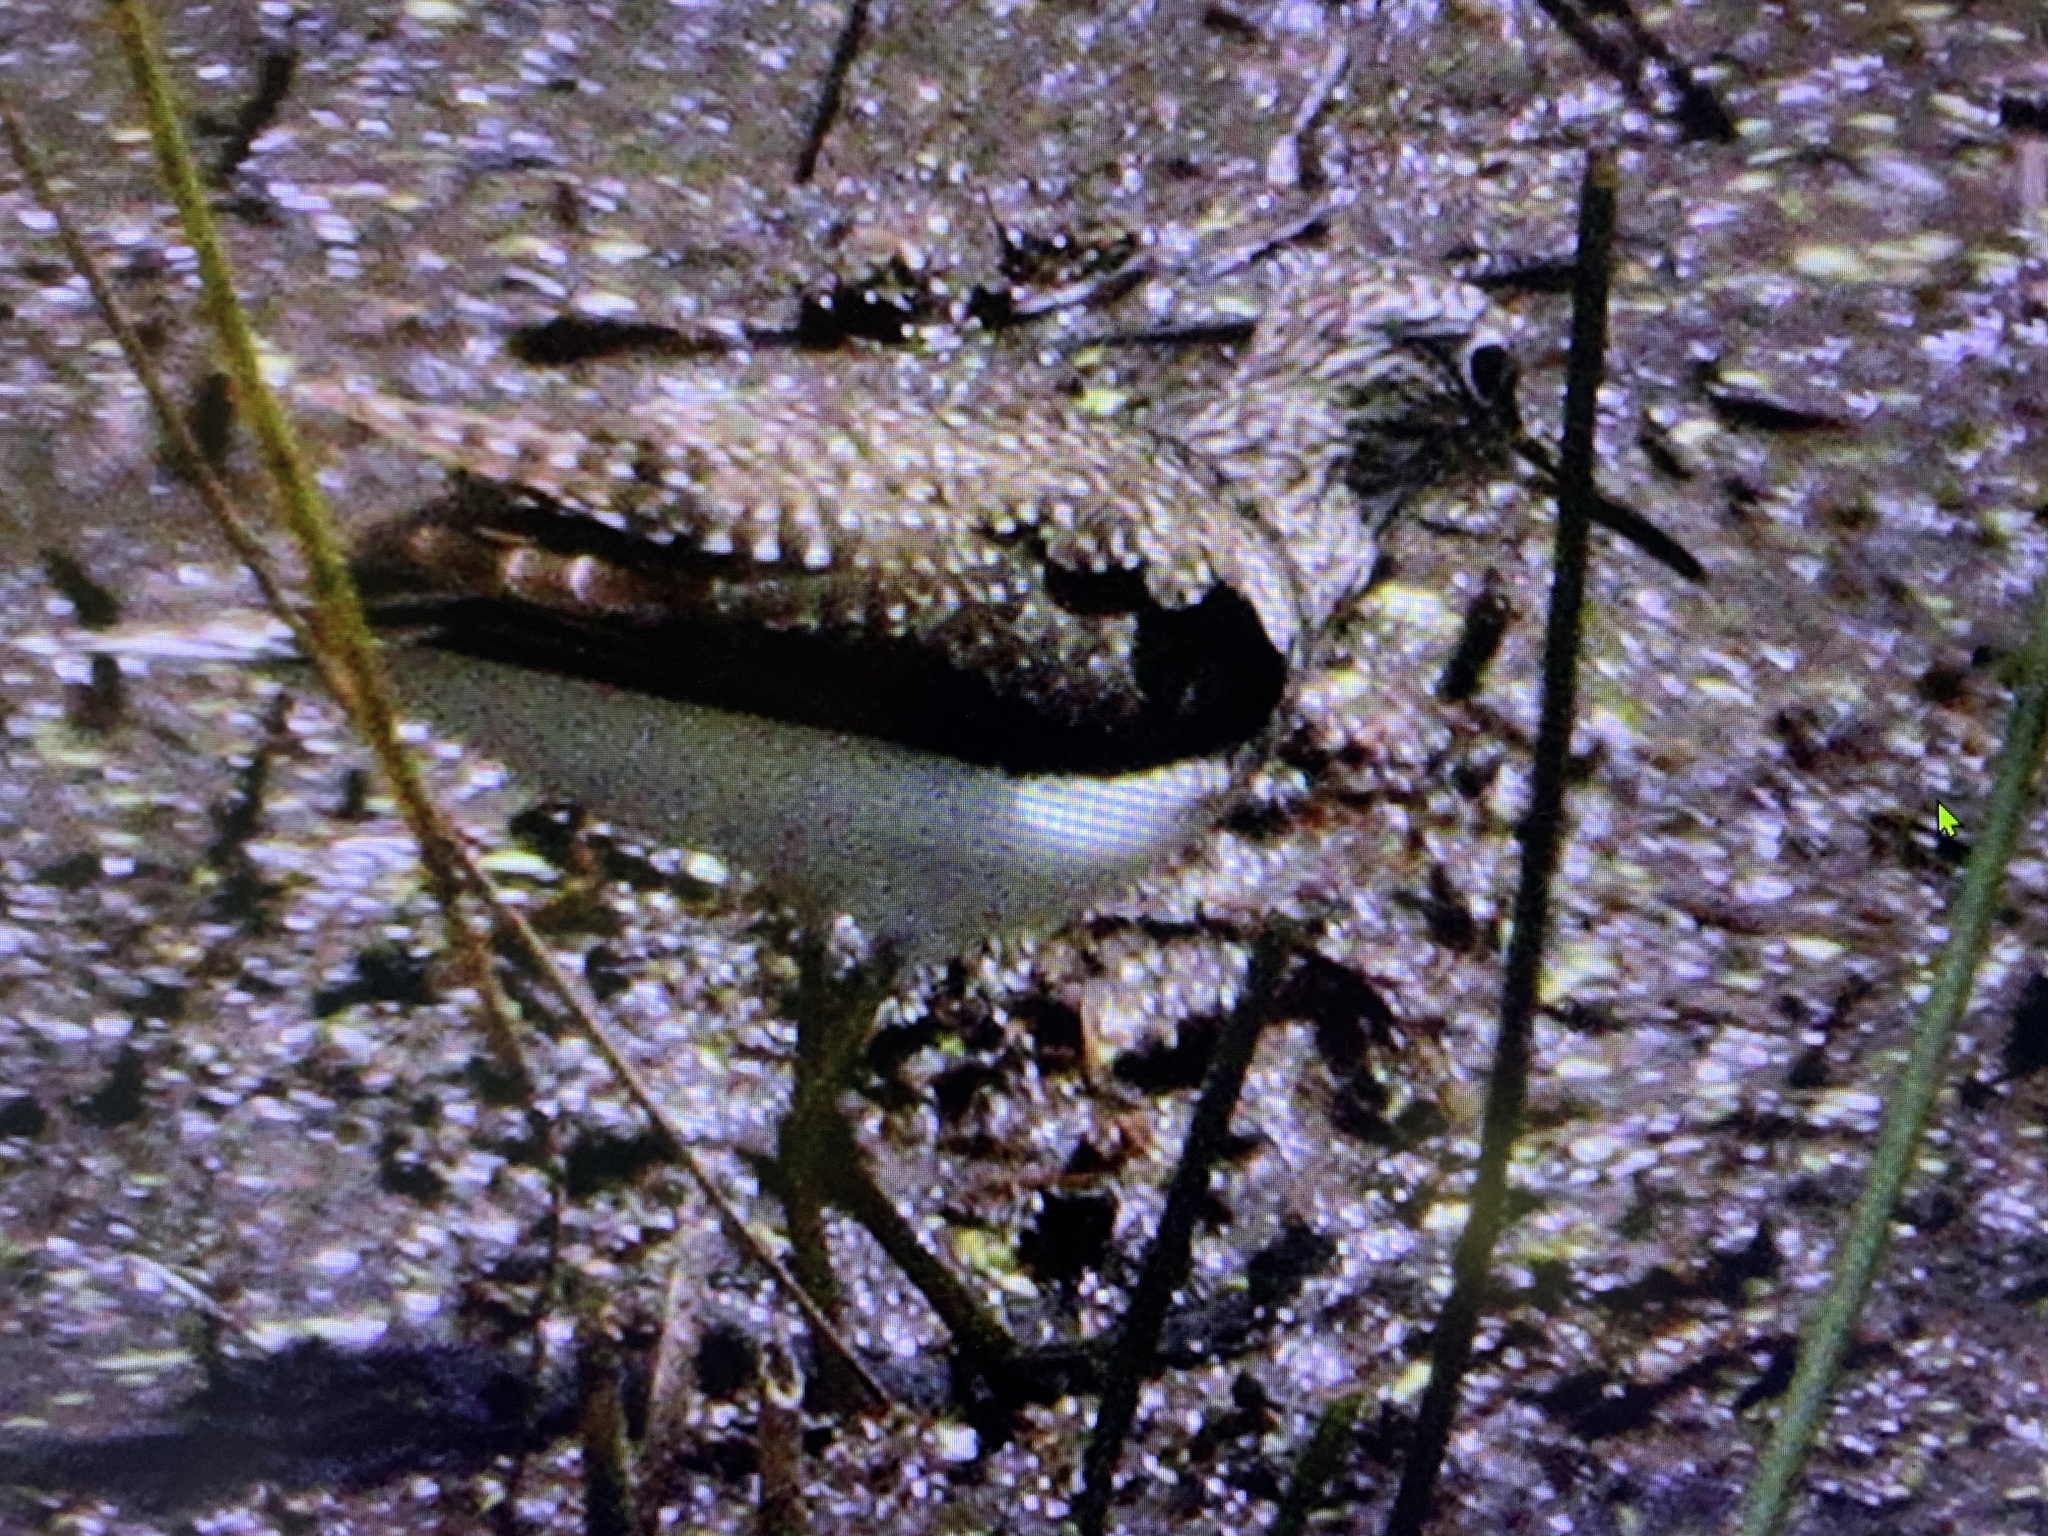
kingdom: Animalia
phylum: Chordata
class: Aves
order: Charadriiformes
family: Scolopacidae
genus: Tringa
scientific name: Tringa solitaria
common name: Solitary sandpiper
